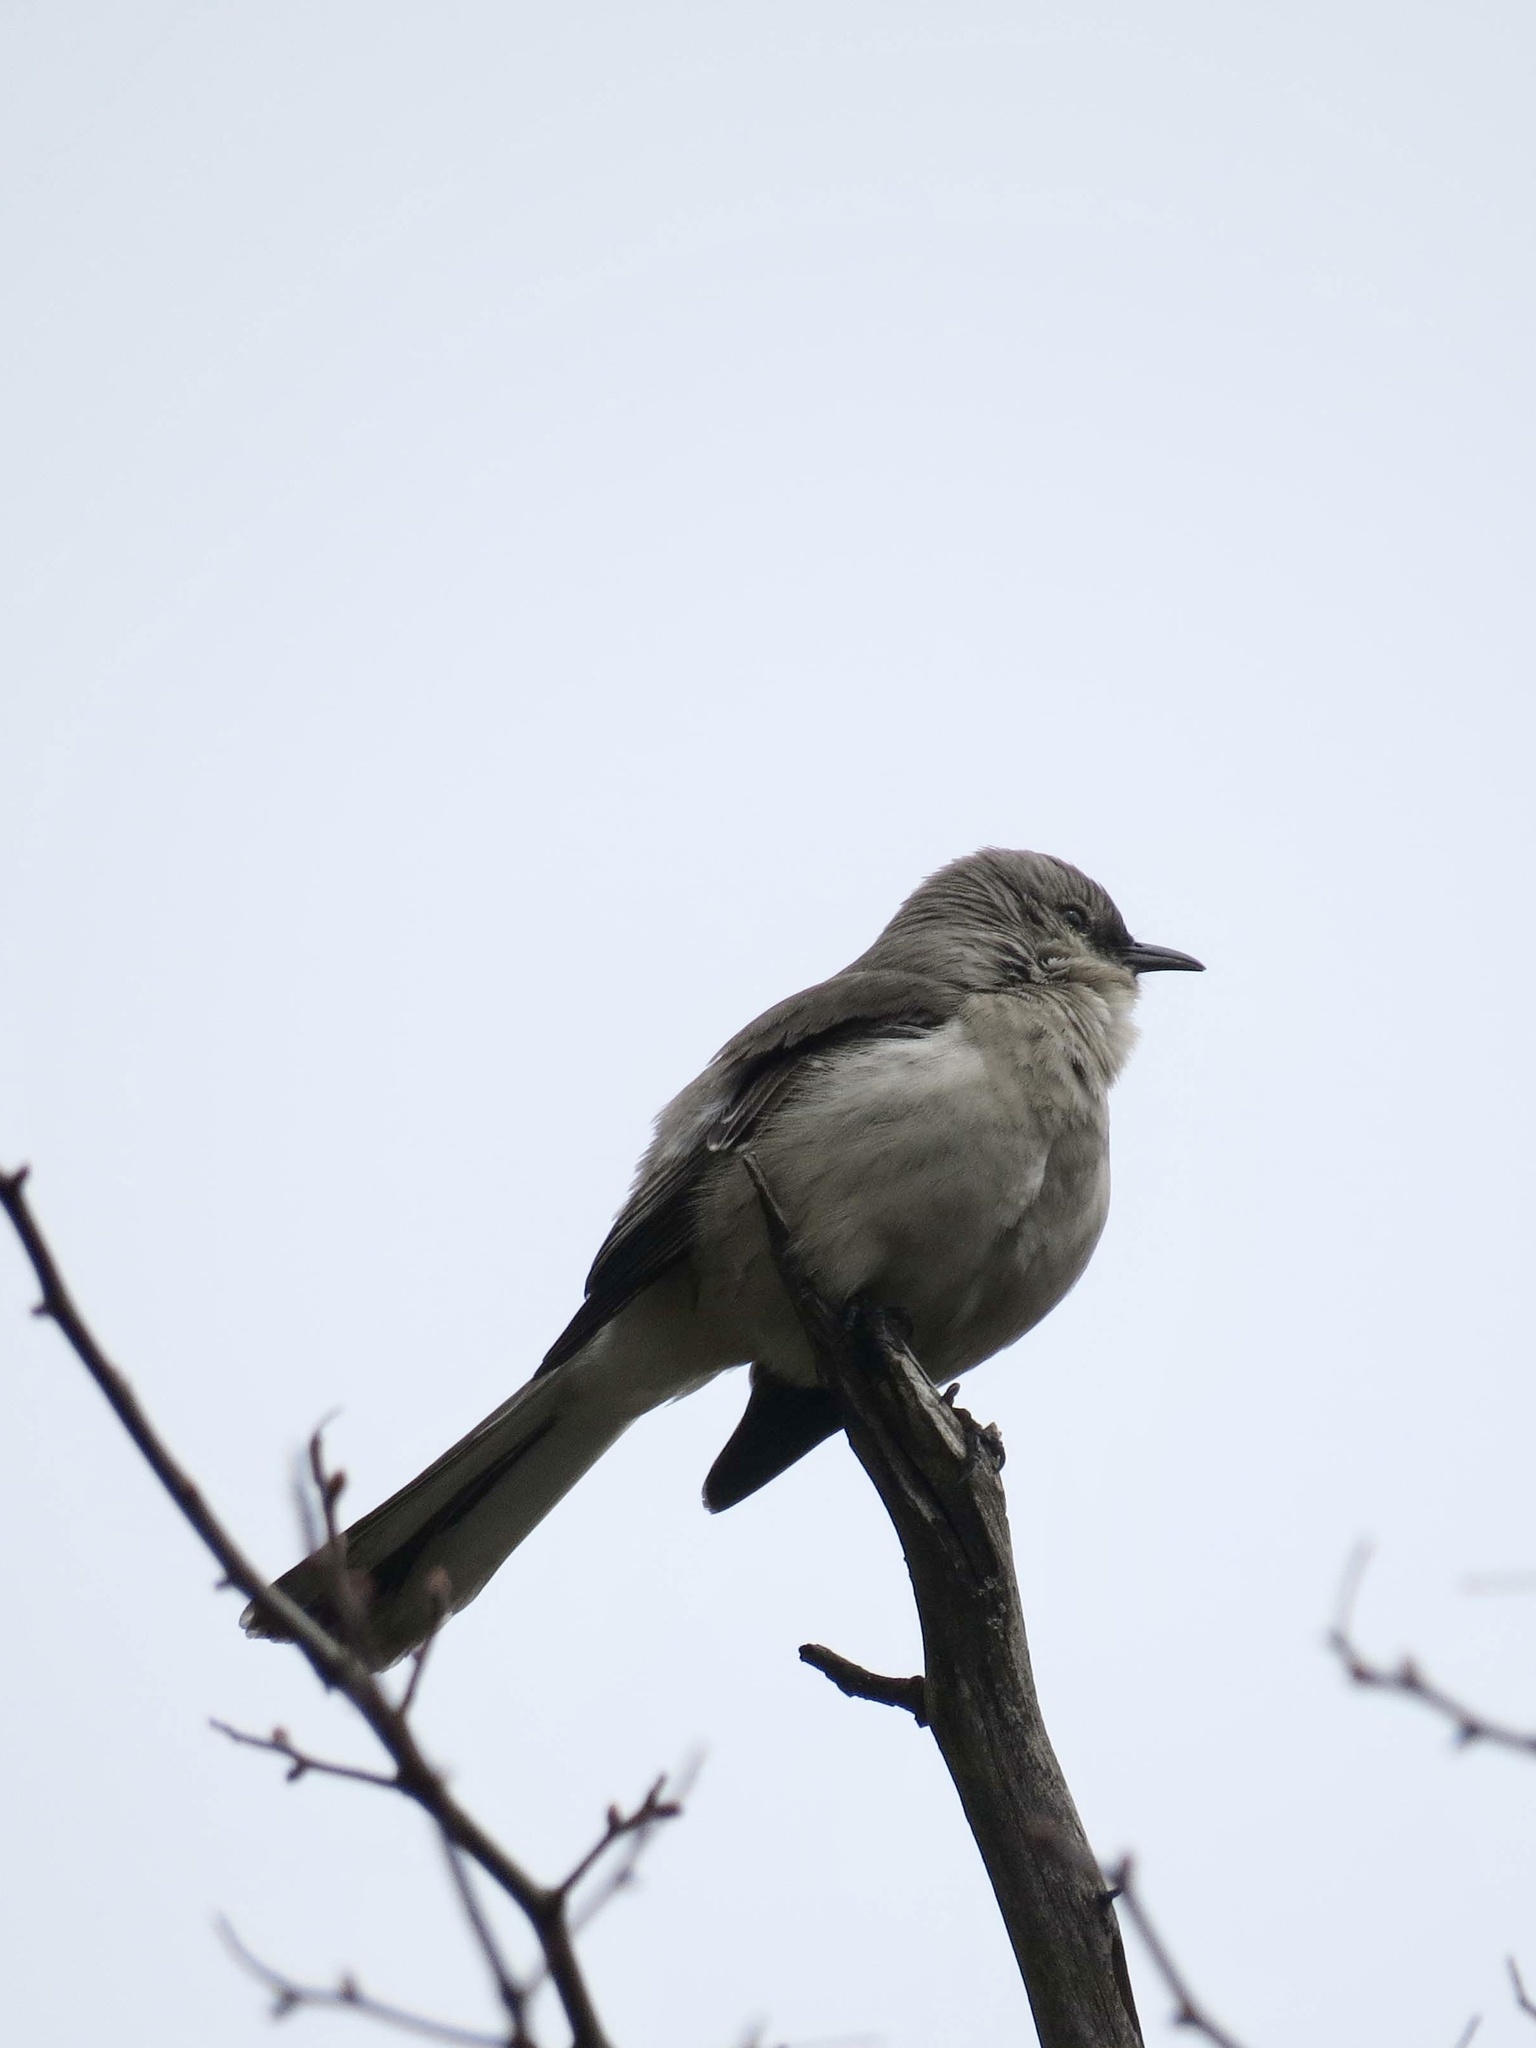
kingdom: Animalia
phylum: Chordata
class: Aves
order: Passeriformes
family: Mimidae
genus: Mimus
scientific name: Mimus polyglottos
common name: Northern mockingbird
